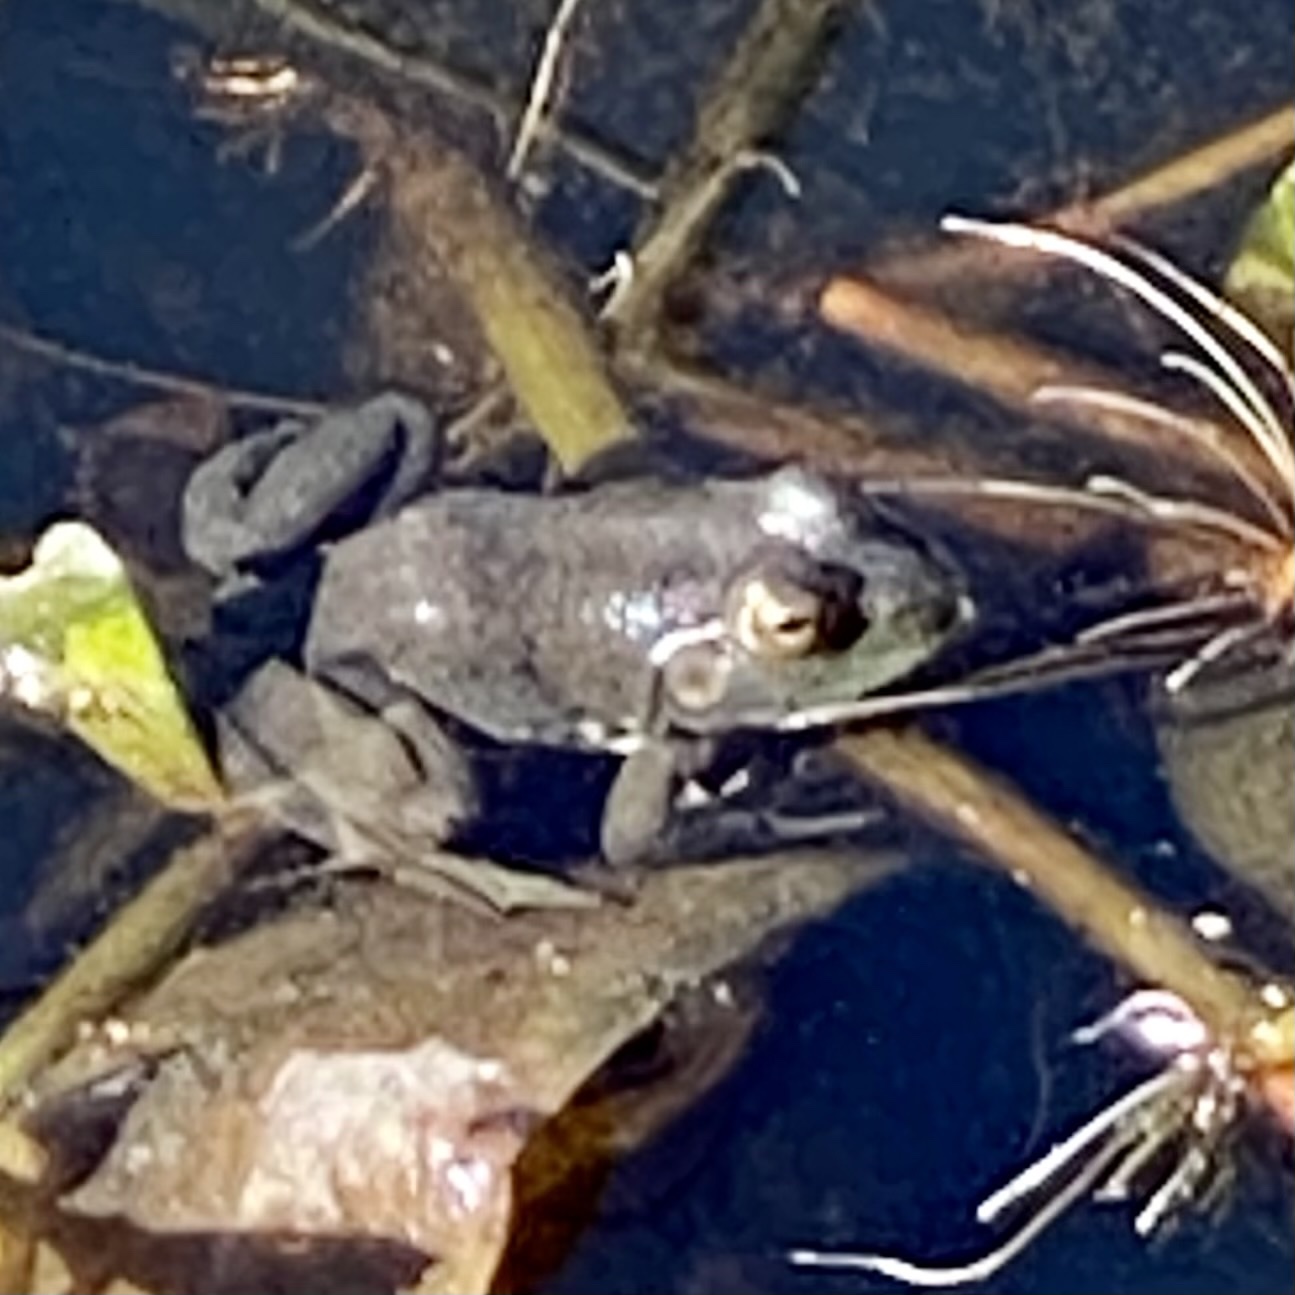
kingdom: Animalia
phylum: Chordata
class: Amphibia
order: Anura
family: Ranidae
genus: Lithobates
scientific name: Lithobates catesbeianus
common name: American bullfrog
